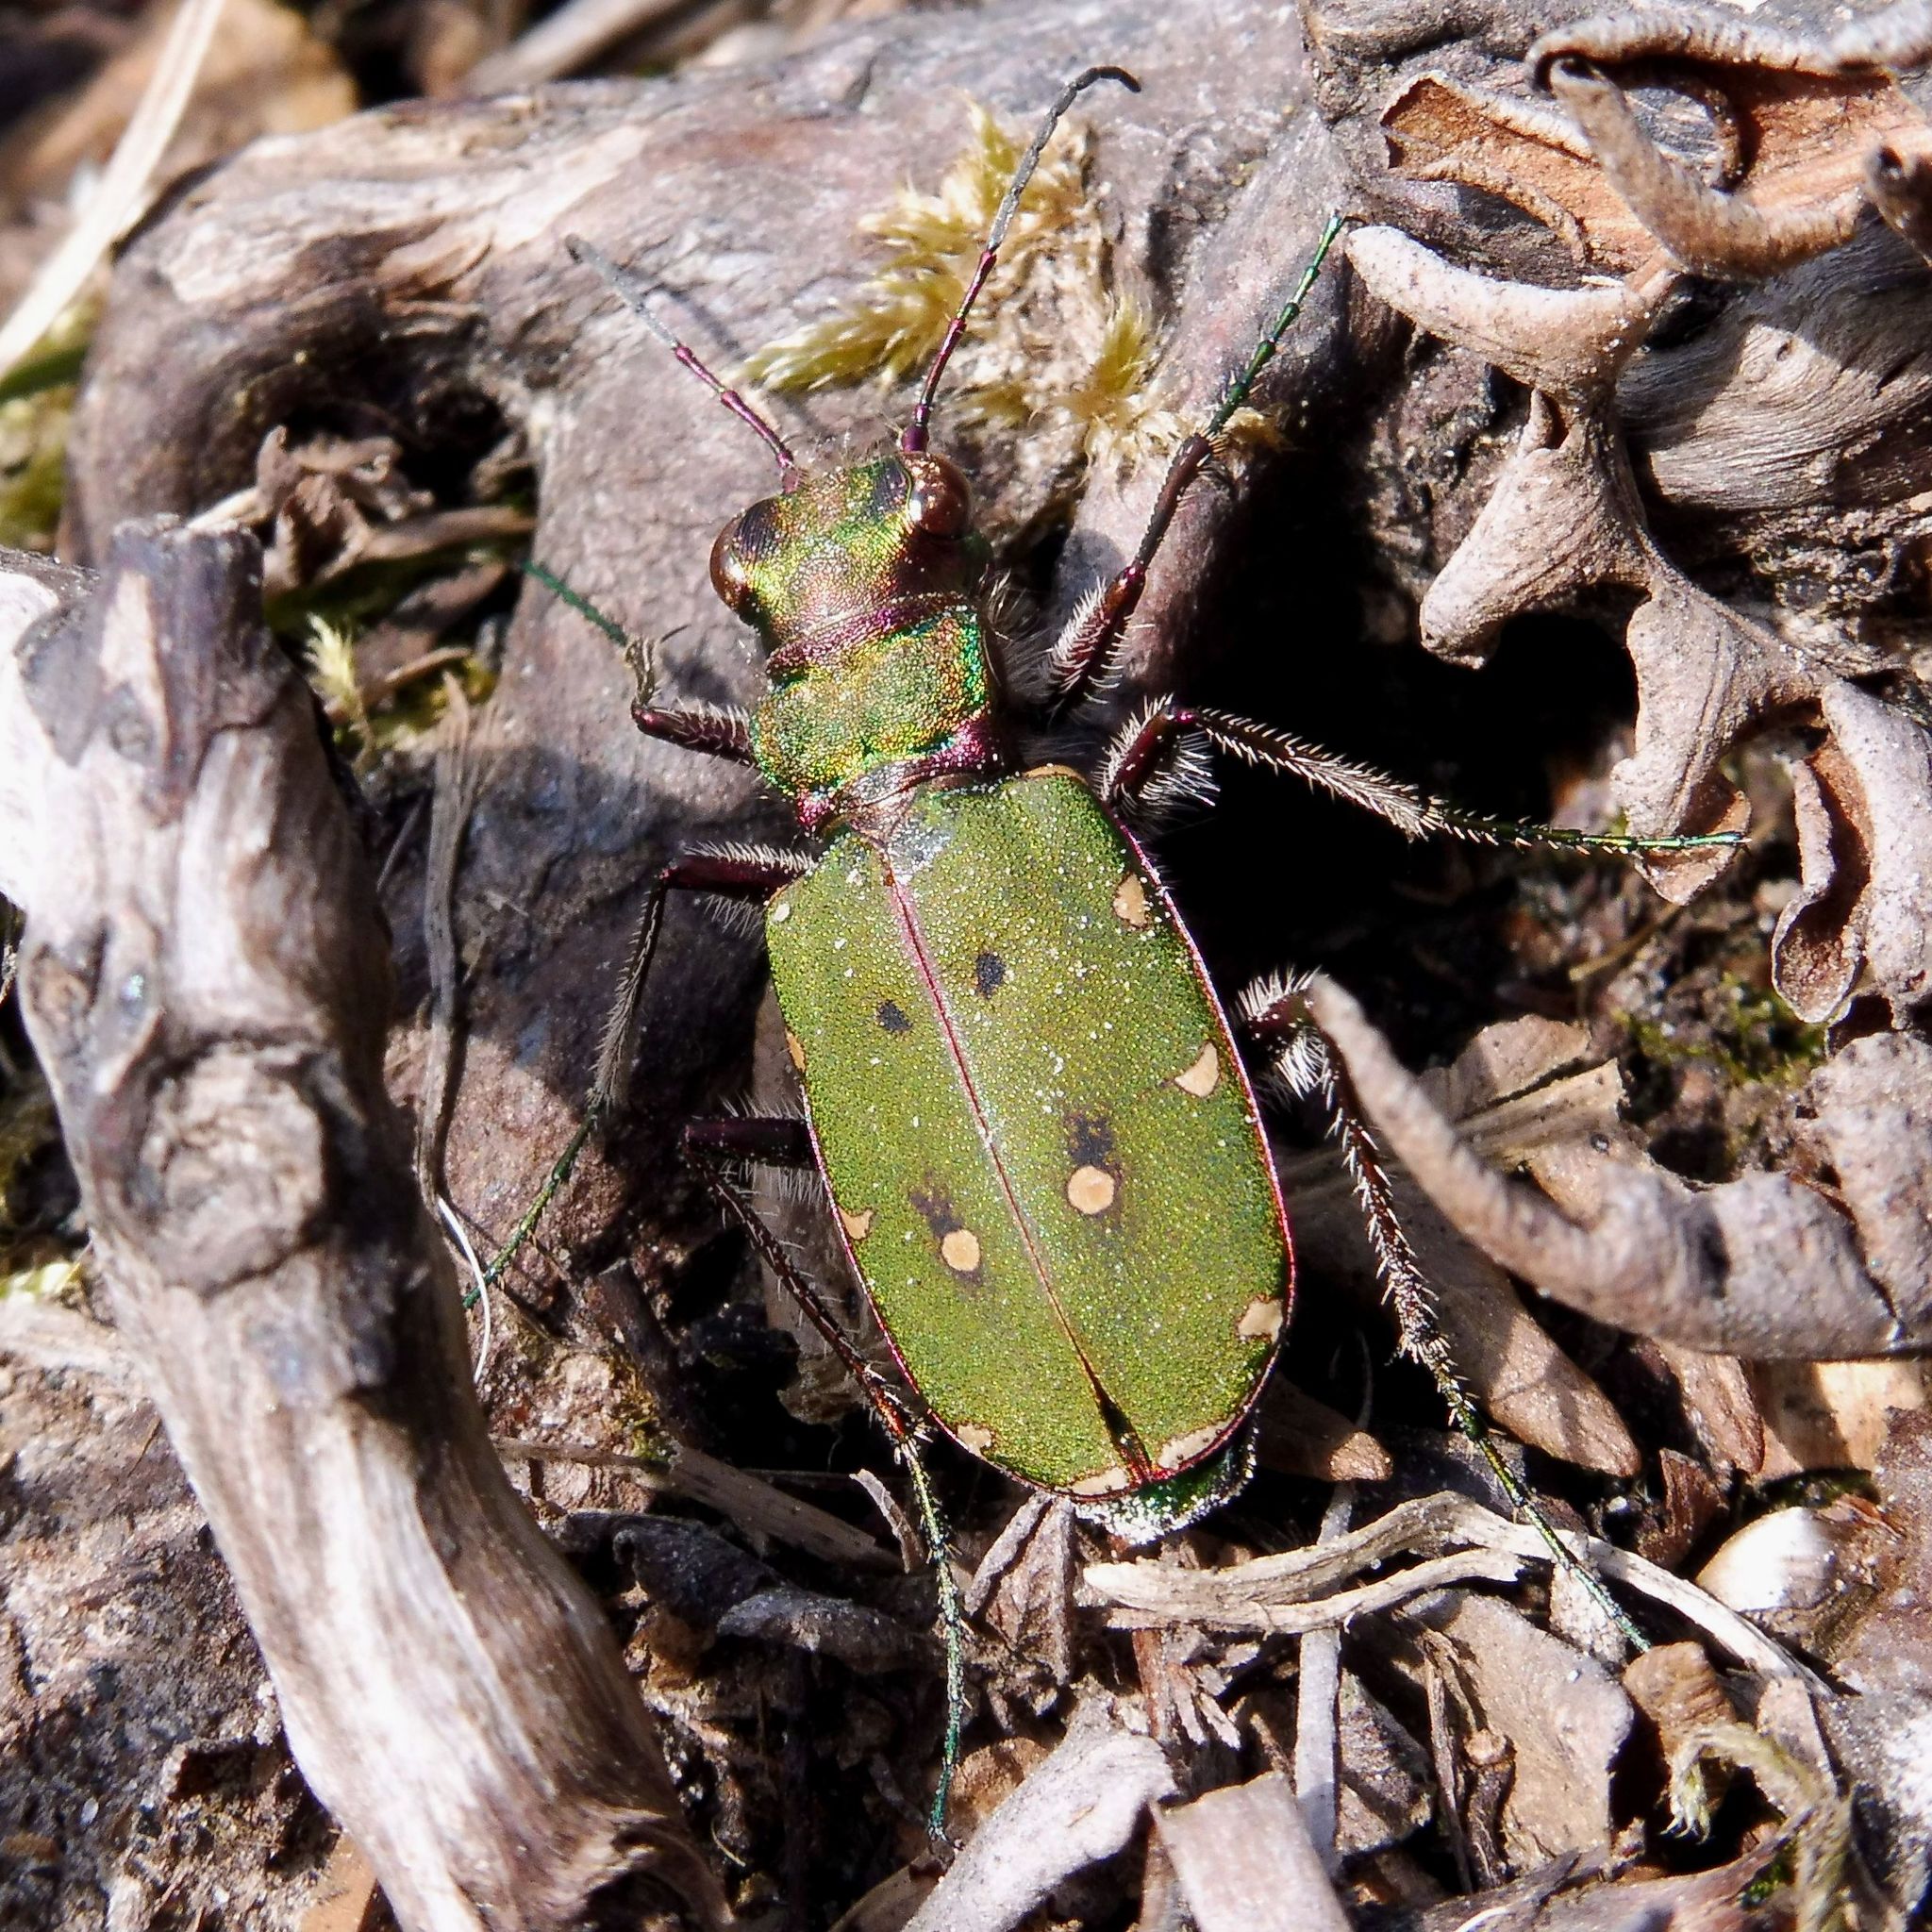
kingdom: Animalia
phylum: Arthropoda
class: Insecta
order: Coleoptera
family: Carabidae
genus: Cicindela
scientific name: Cicindela campestris
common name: Common tiger beetle
